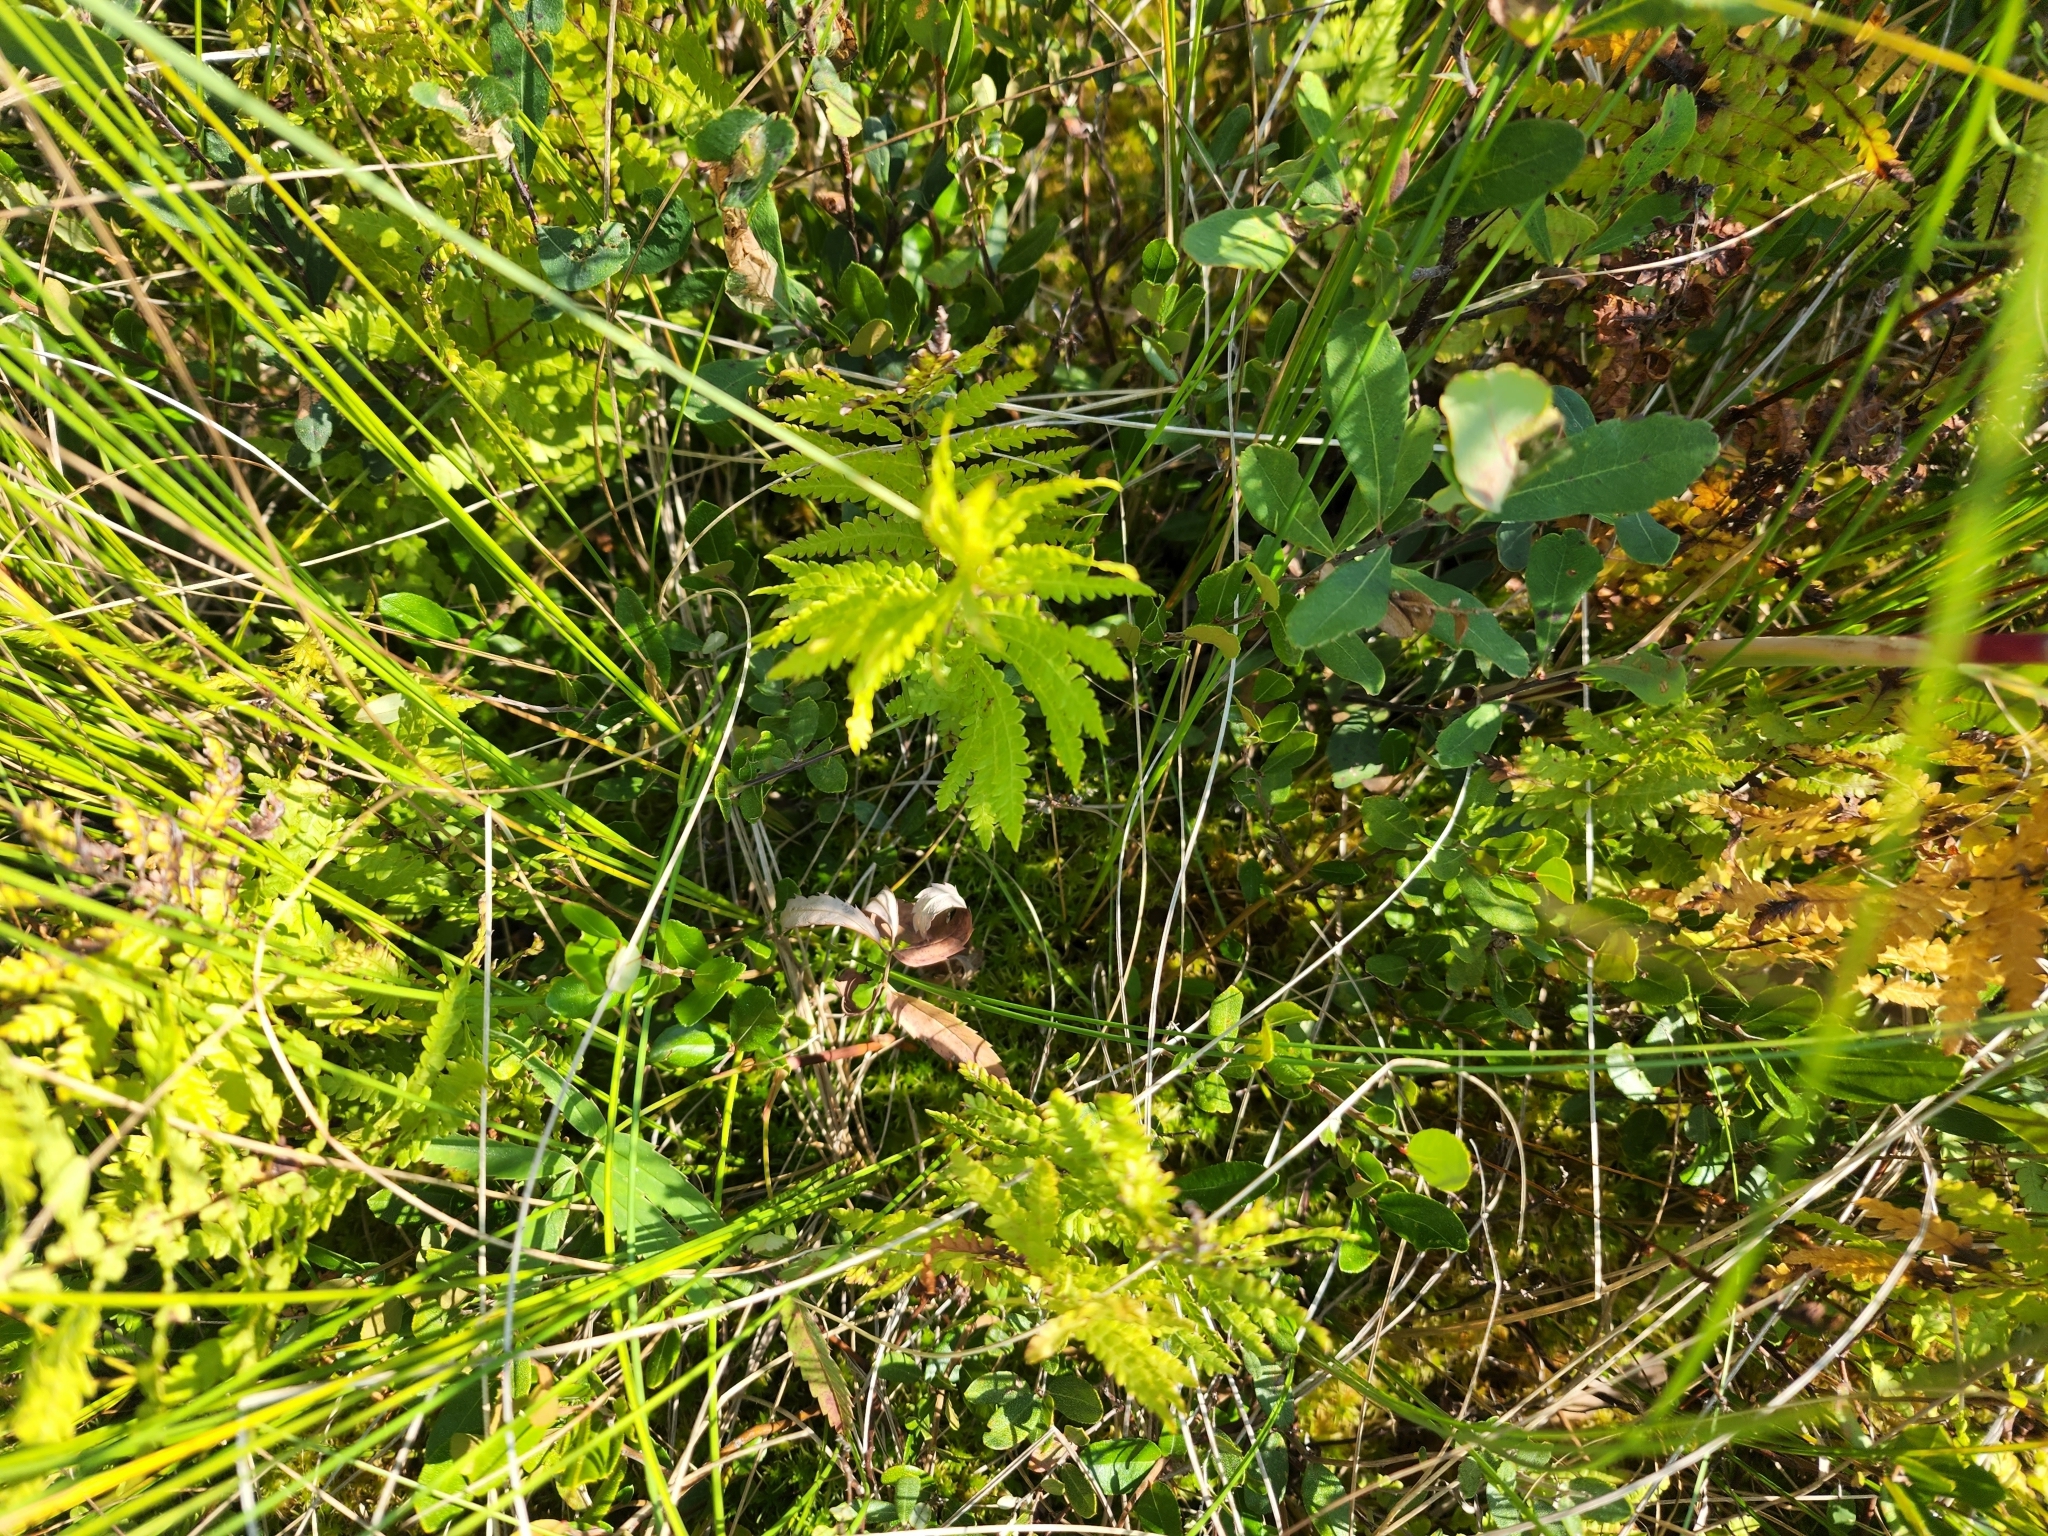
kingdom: Plantae
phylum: Tracheophyta
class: Polypodiopsida
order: Polypodiales
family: Thelypteridaceae
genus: Thelypteris
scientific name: Thelypteris palustris
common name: Marsh fern
